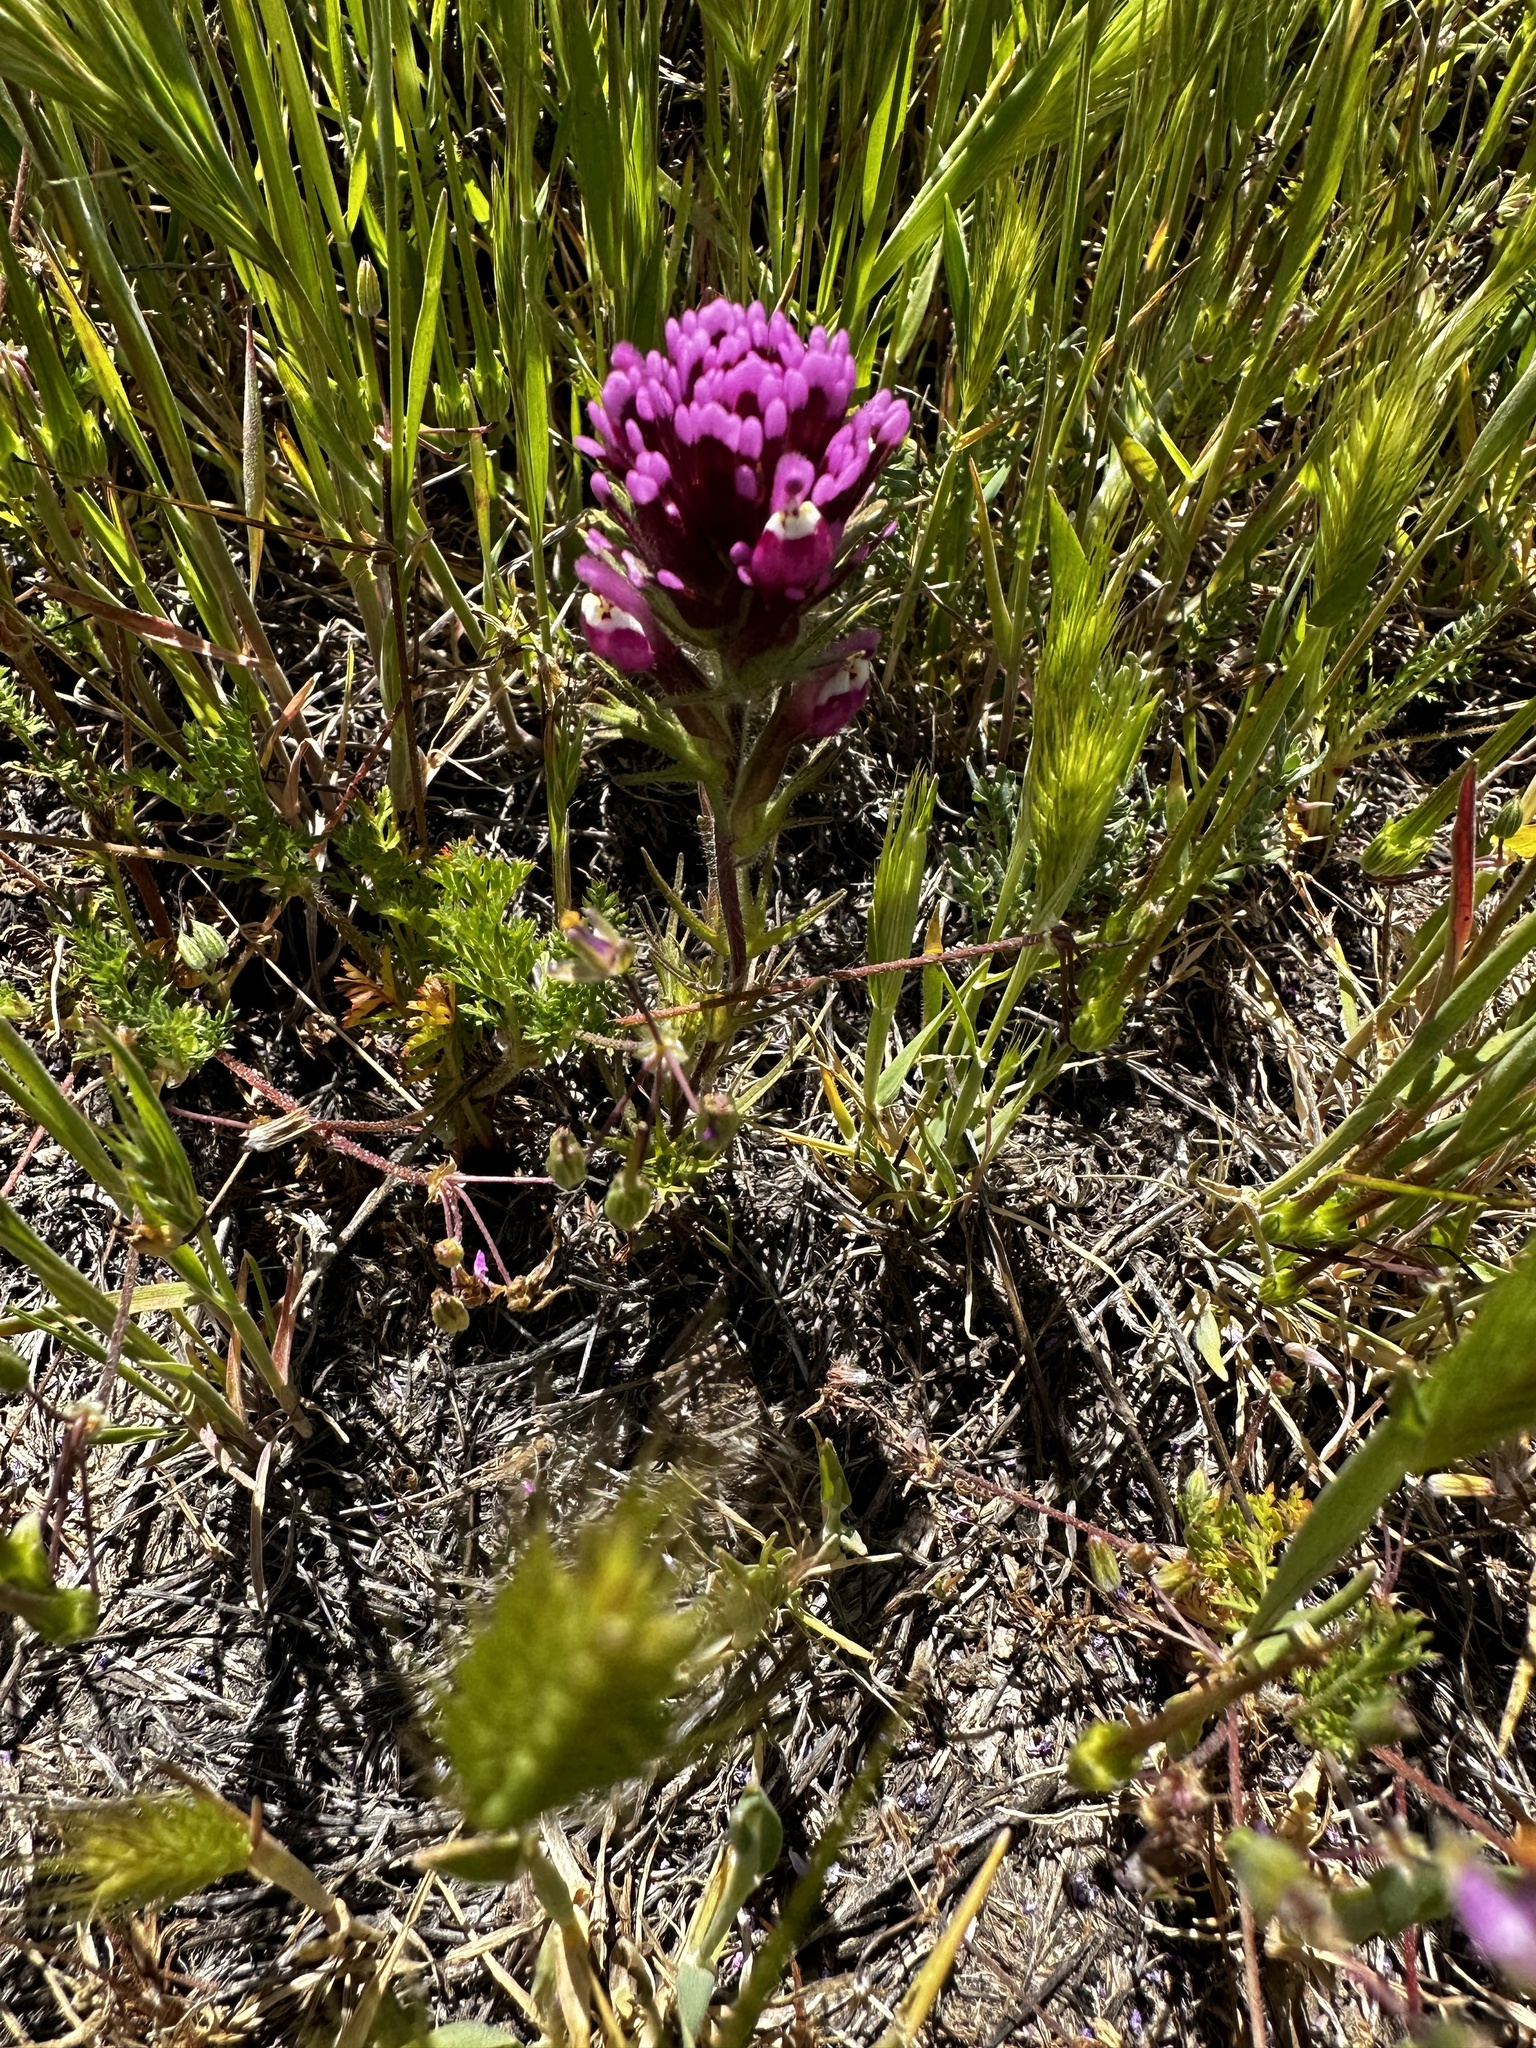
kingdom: Plantae
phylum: Tracheophyta
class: Magnoliopsida
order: Lamiales
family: Orobanchaceae
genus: Castilleja
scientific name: Castilleja exserta
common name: Purple owl-clover
